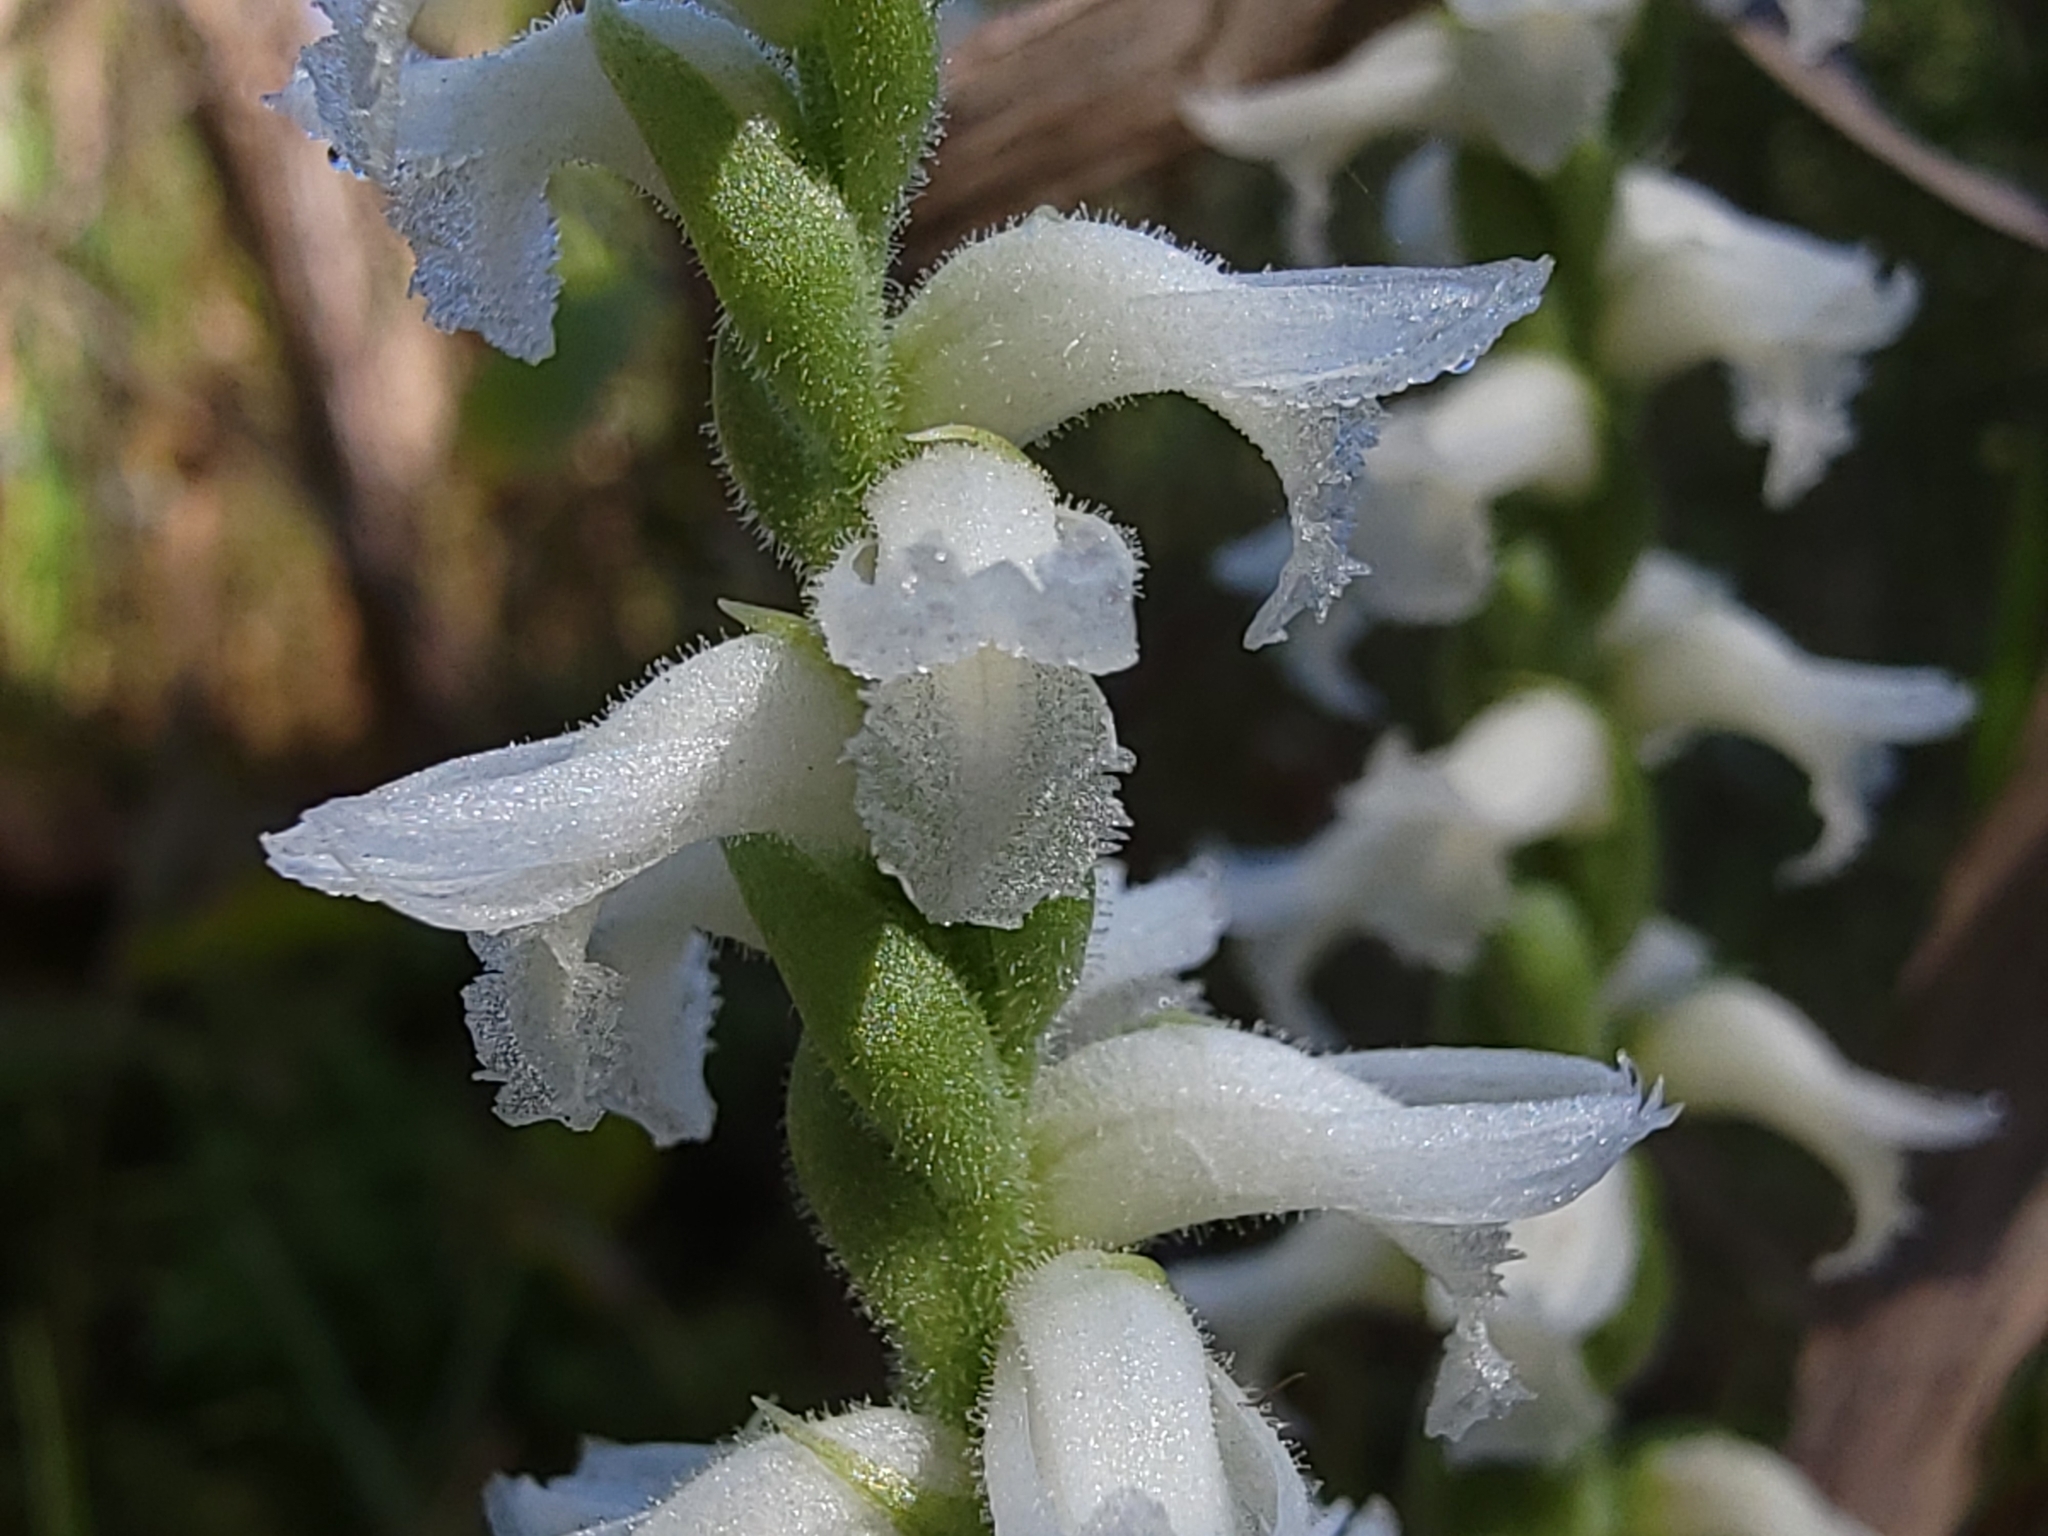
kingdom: Plantae
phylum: Tracheophyta
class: Liliopsida
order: Asparagales
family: Orchidaceae
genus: Spiranthes
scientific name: Spiranthes cernua
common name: Dropping ladies'-tresses
